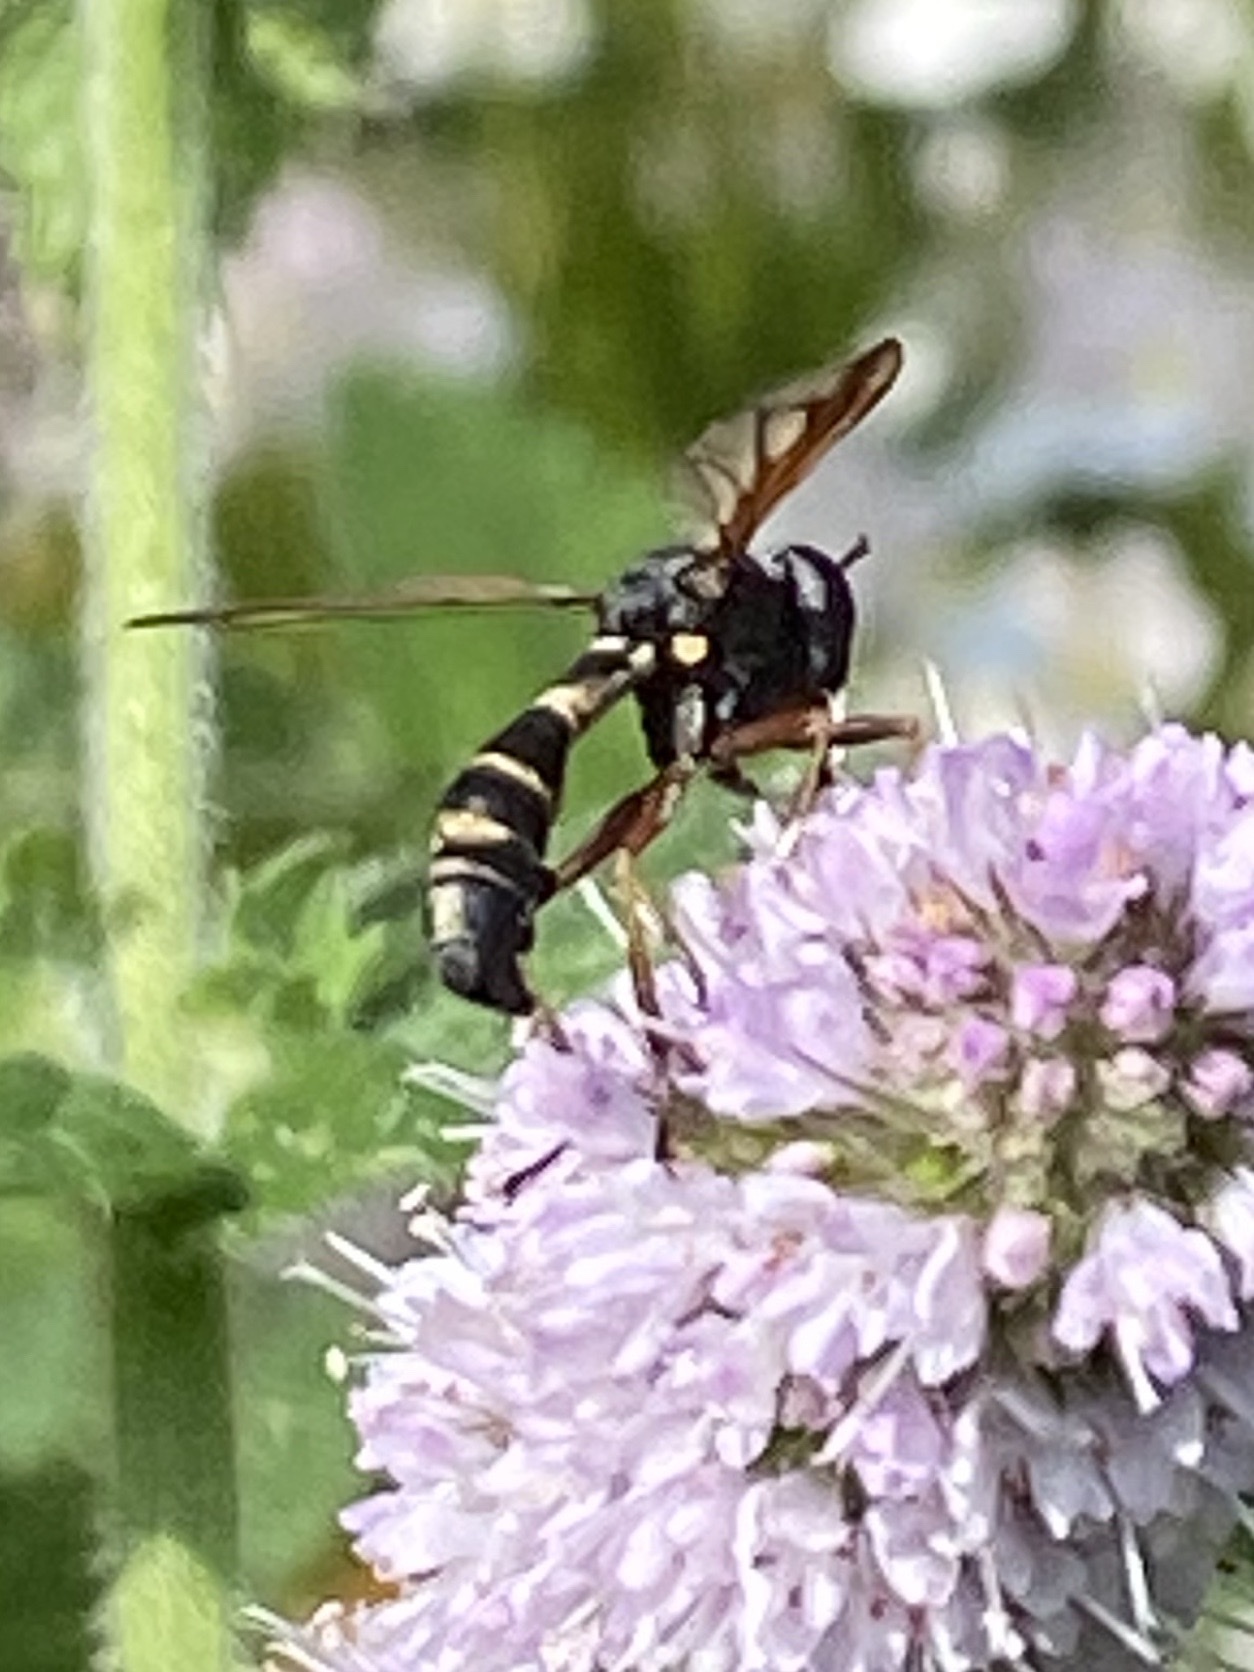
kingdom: Animalia
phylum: Arthropoda
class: Insecta
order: Diptera
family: Conopidae
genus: Physocephala
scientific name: Physocephala rufipes
